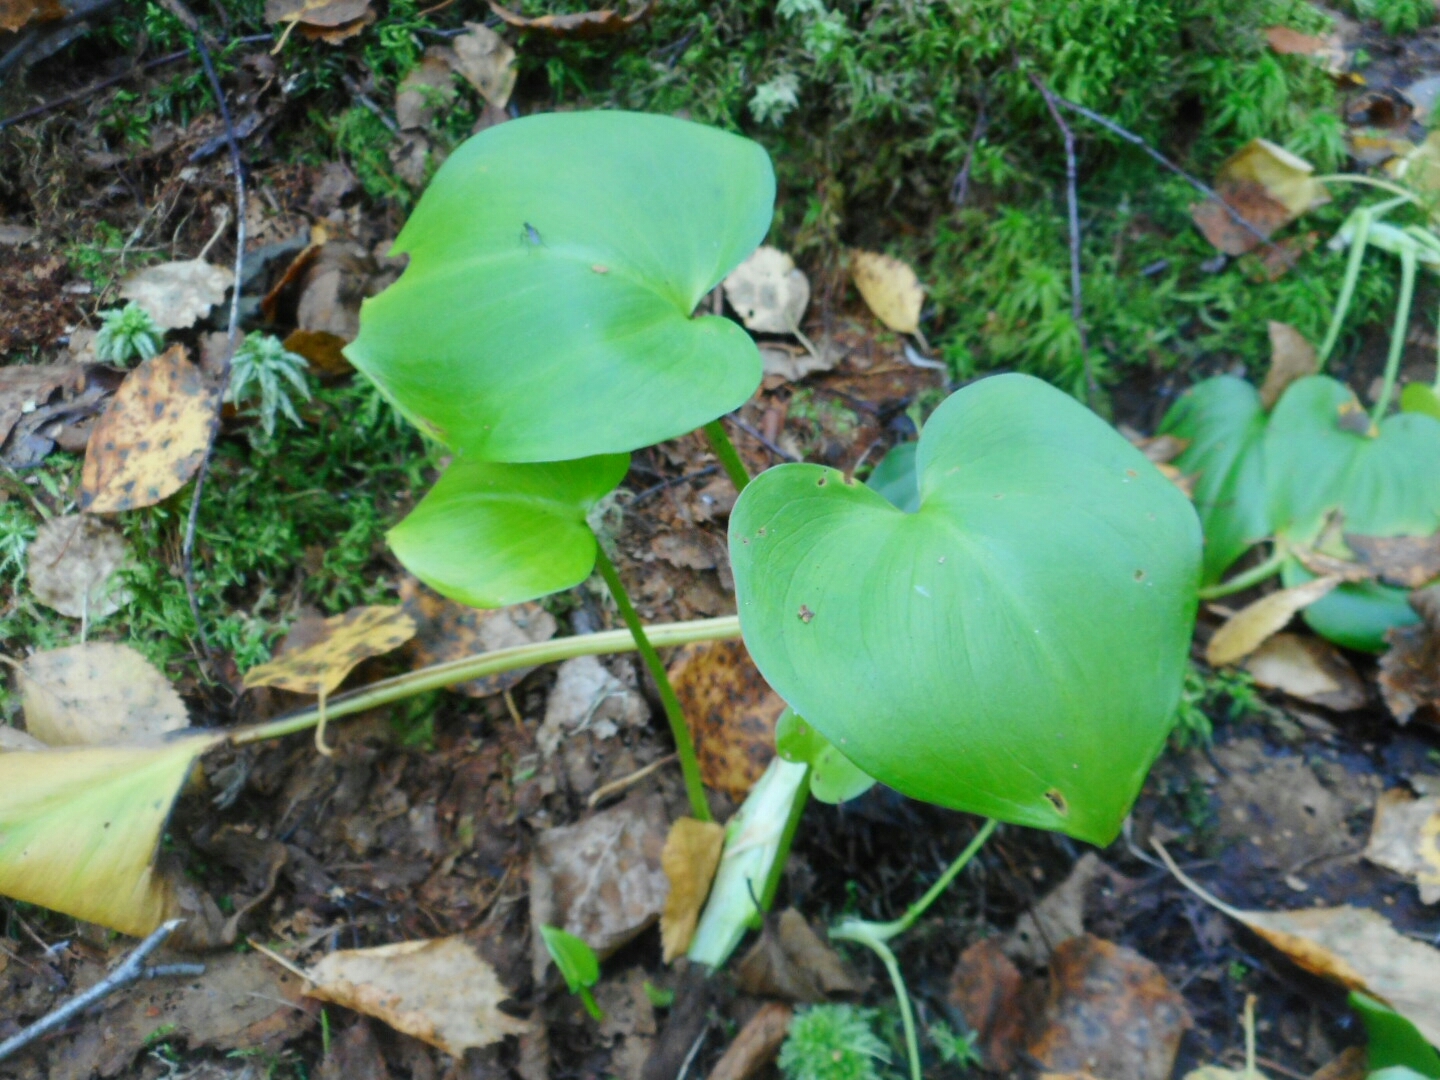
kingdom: Plantae
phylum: Tracheophyta
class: Liliopsida
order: Alismatales
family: Araceae
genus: Calla
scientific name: Calla palustris
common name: Bog arum
